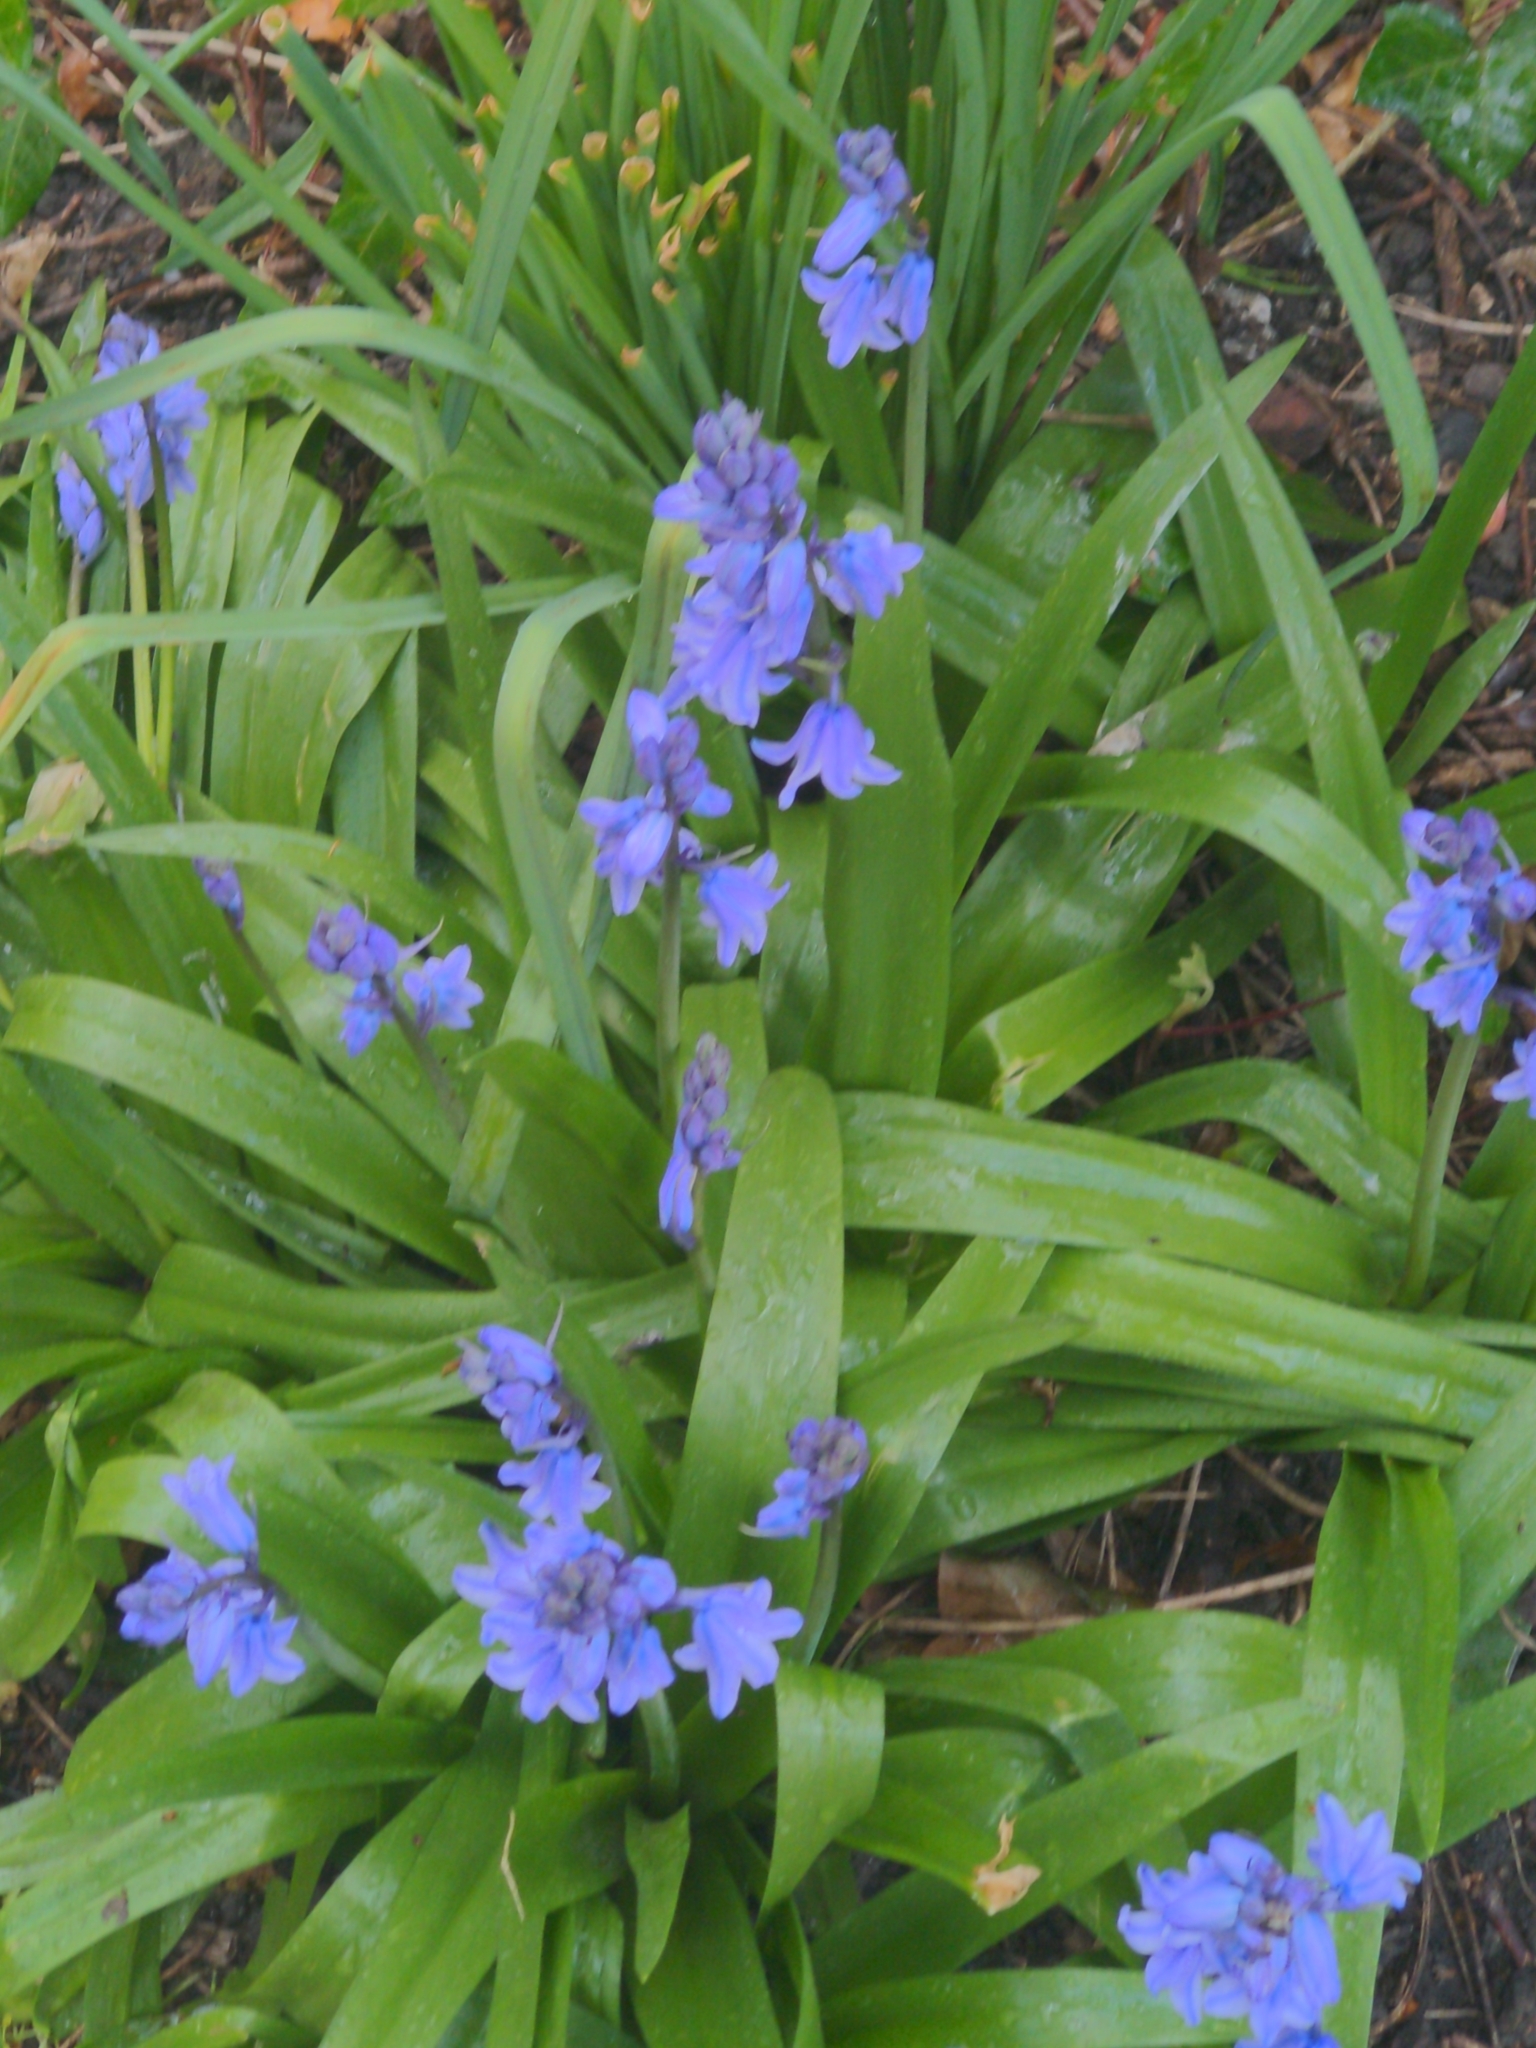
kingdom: Plantae
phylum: Tracheophyta
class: Liliopsida
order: Asparagales
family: Asparagaceae
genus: Hyacinthoides
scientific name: Hyacinthoides hispanica
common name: Spanish bluebell
